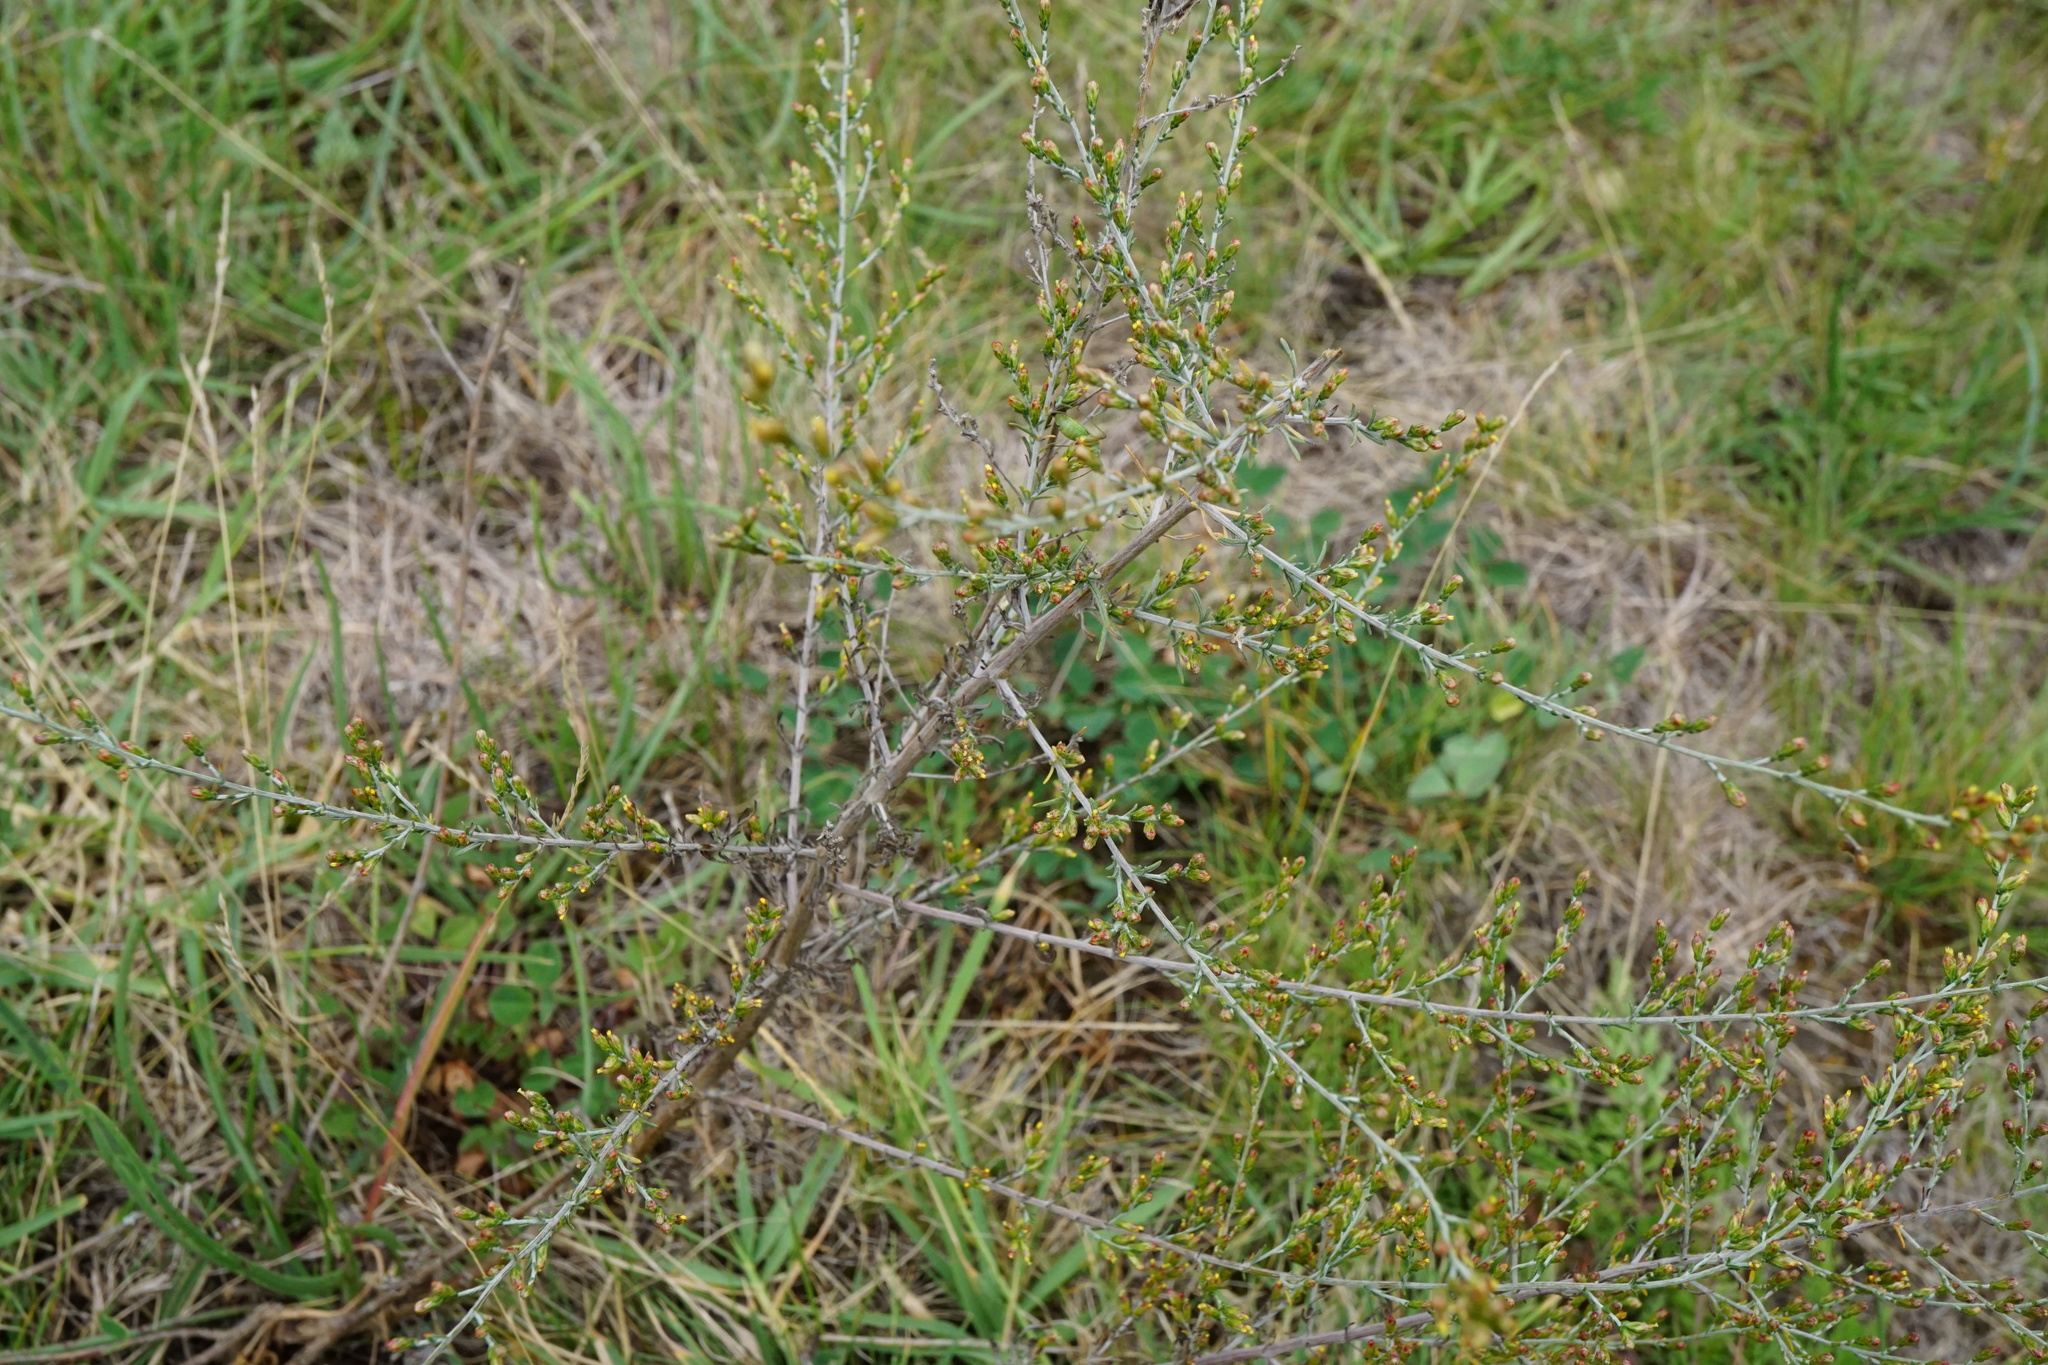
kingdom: Plantae
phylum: Tracheophyta
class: Magnoliopsida
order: Asterales
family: Asteraceae
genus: Artemisia
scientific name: Artemisia santonicum
